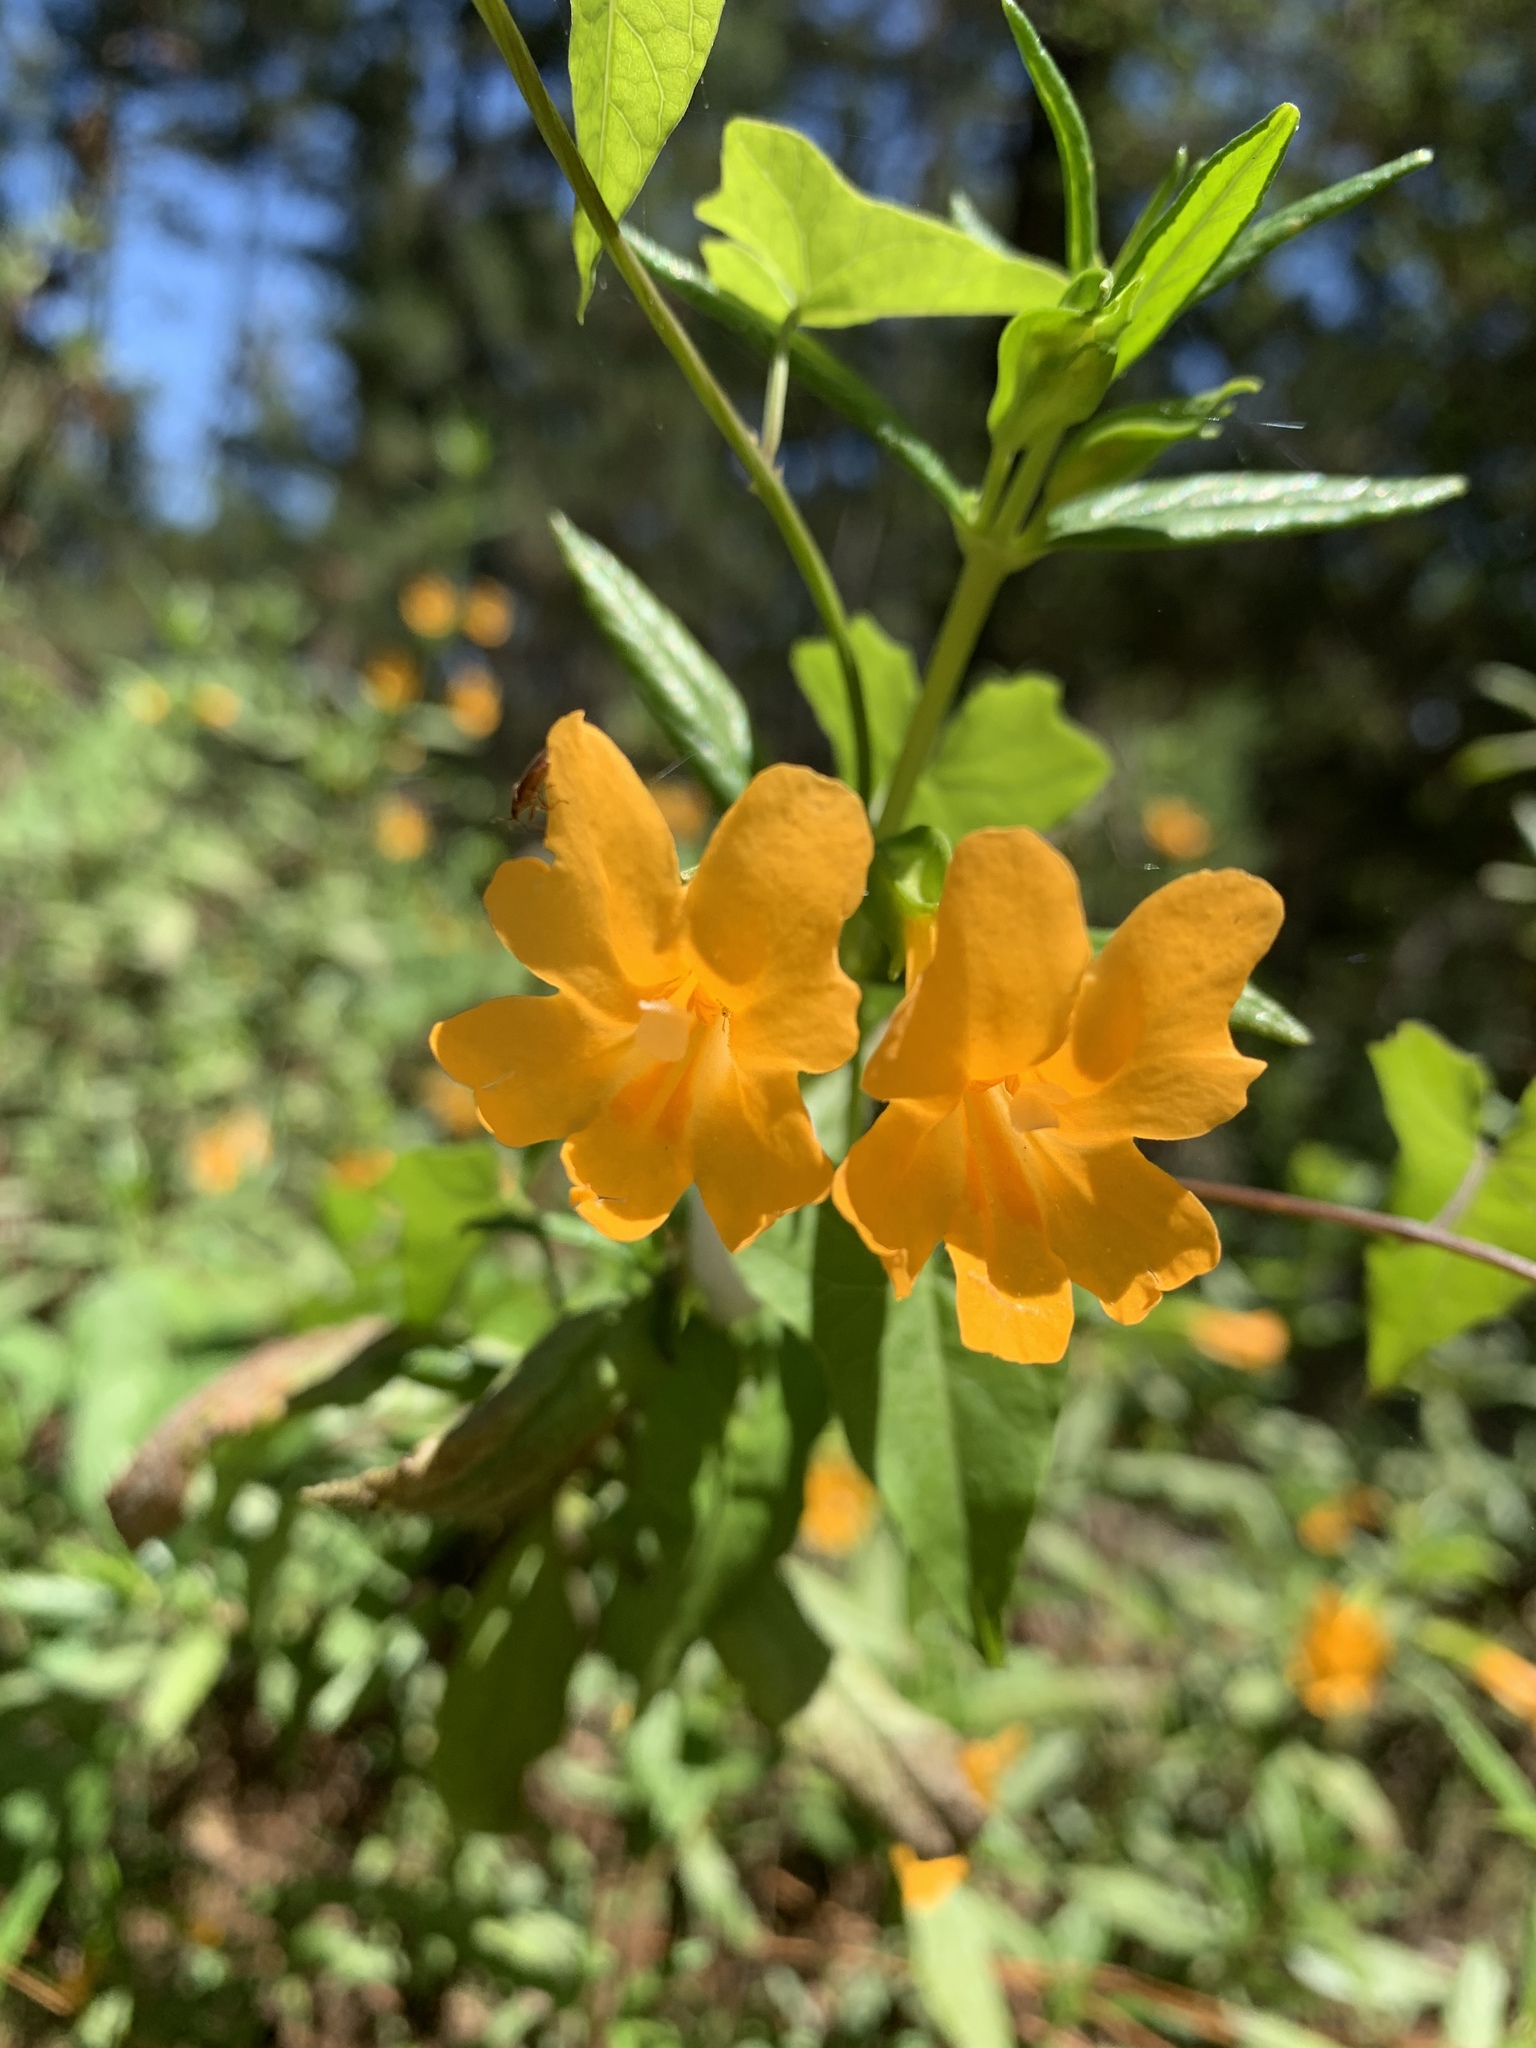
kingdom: Plantae
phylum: Tracheophyta
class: Magnoliopsida
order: Lamiales
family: Phrymaceae
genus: Diplacus
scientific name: Diplacus aurantiacus
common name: Bush monkey-flower
